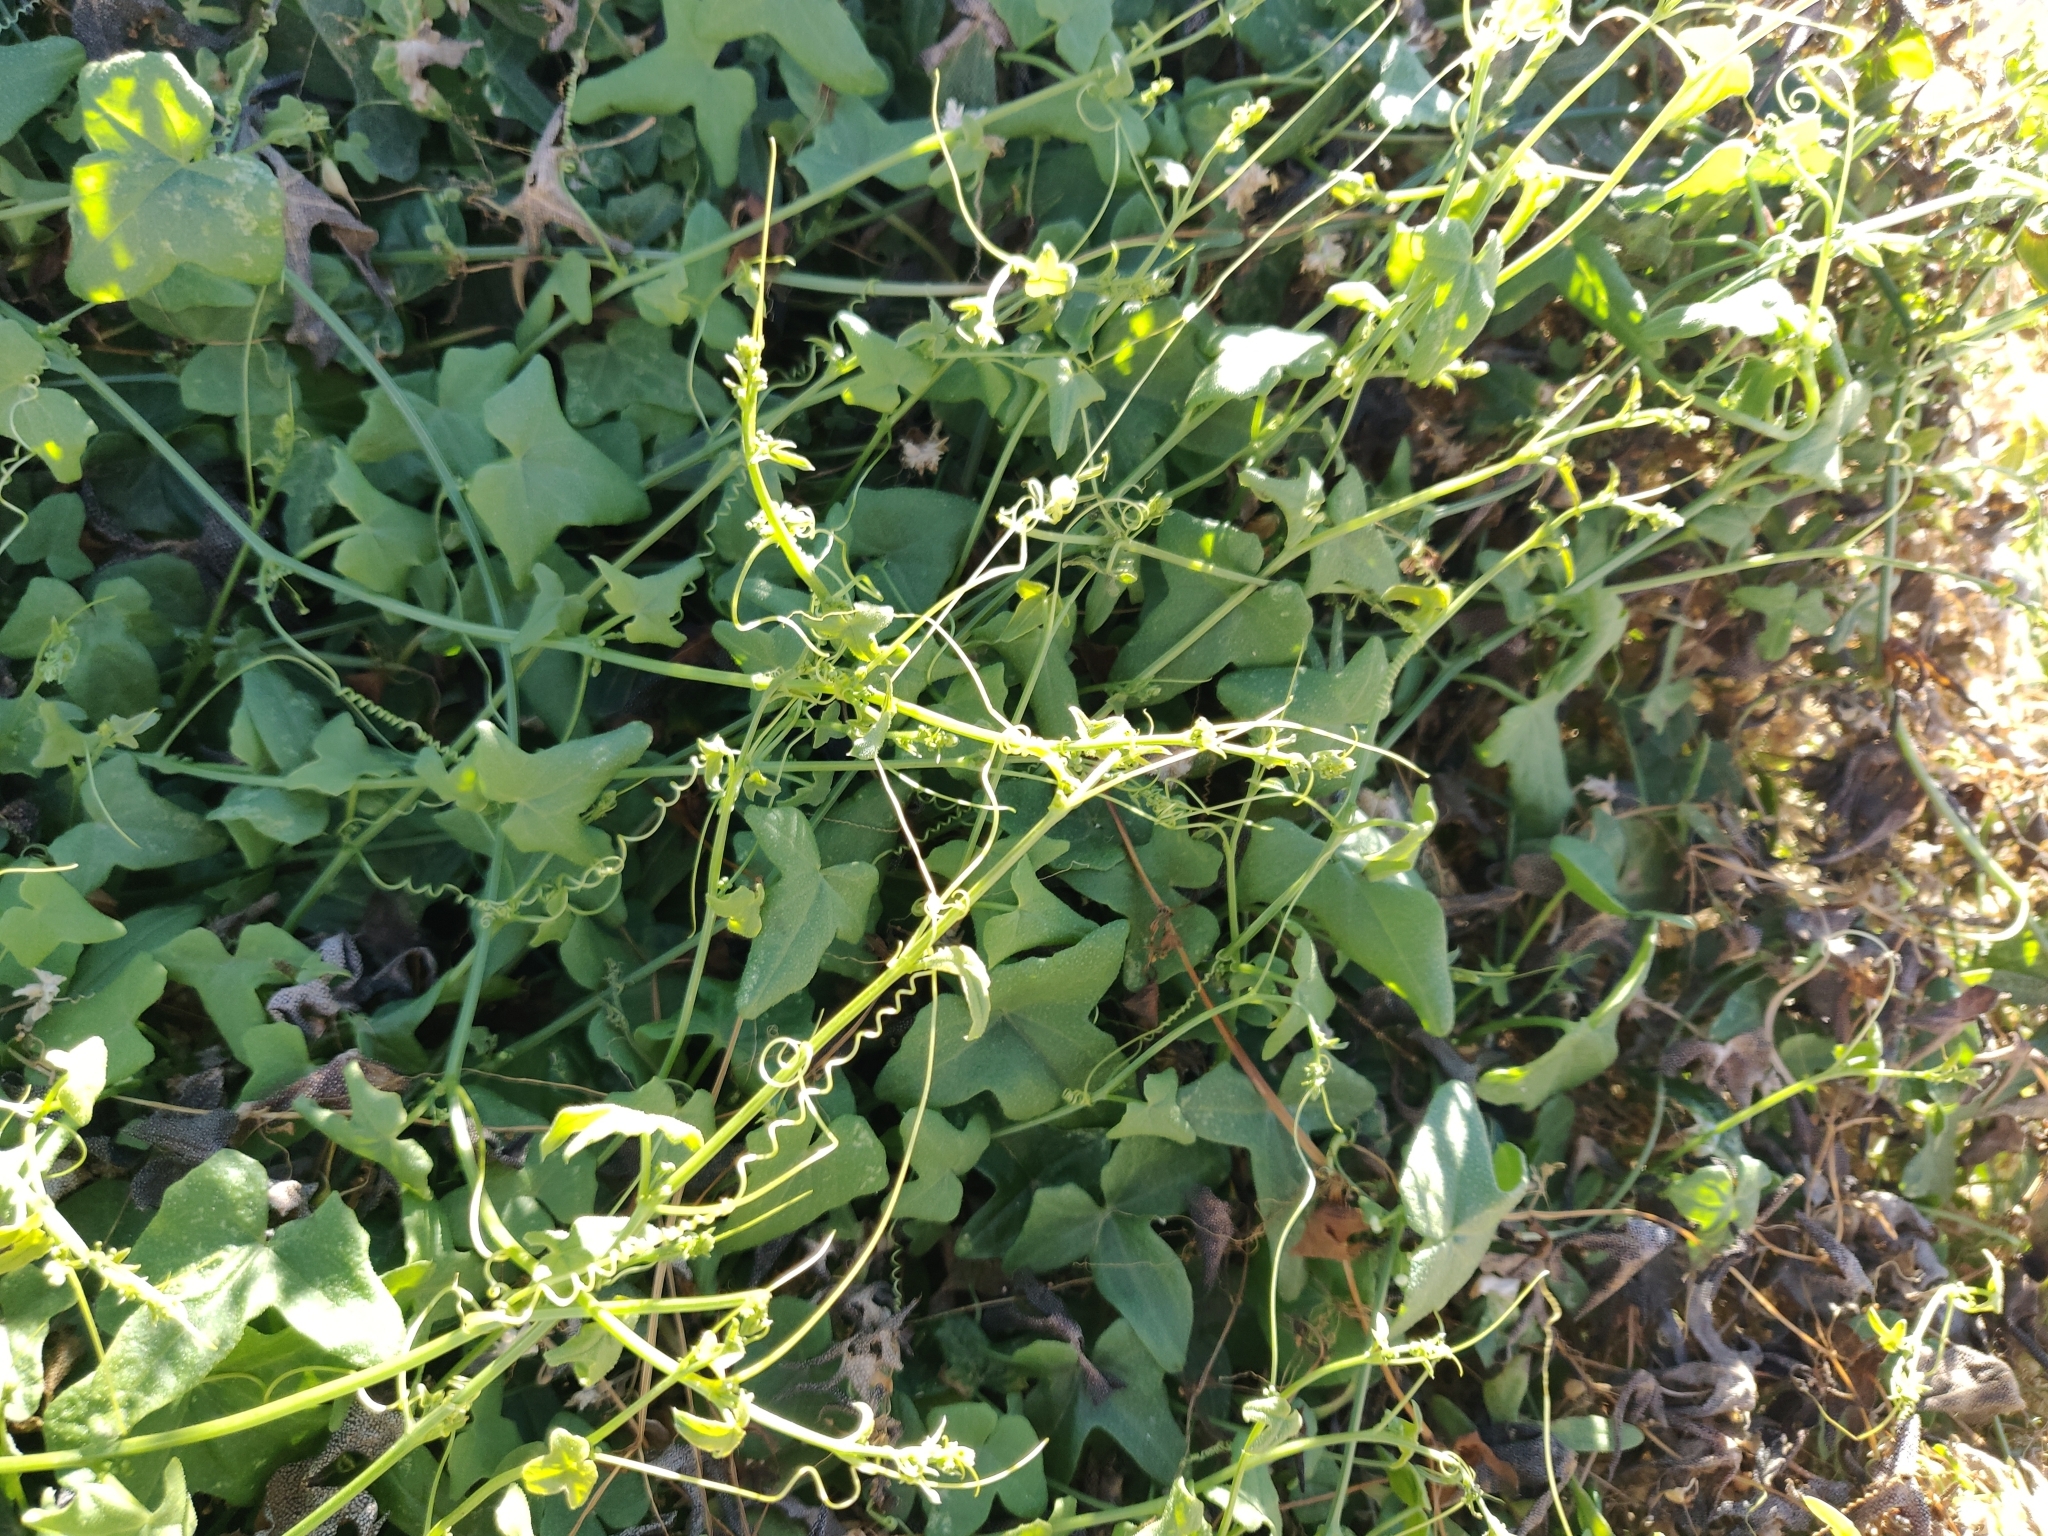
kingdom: Plantae
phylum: Tracheophyta
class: Magnoliopsida
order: Cucurbitales
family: Cucurbitaceae
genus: Echinopepon
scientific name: Echinopepon bigelovii
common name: Desert starvine
